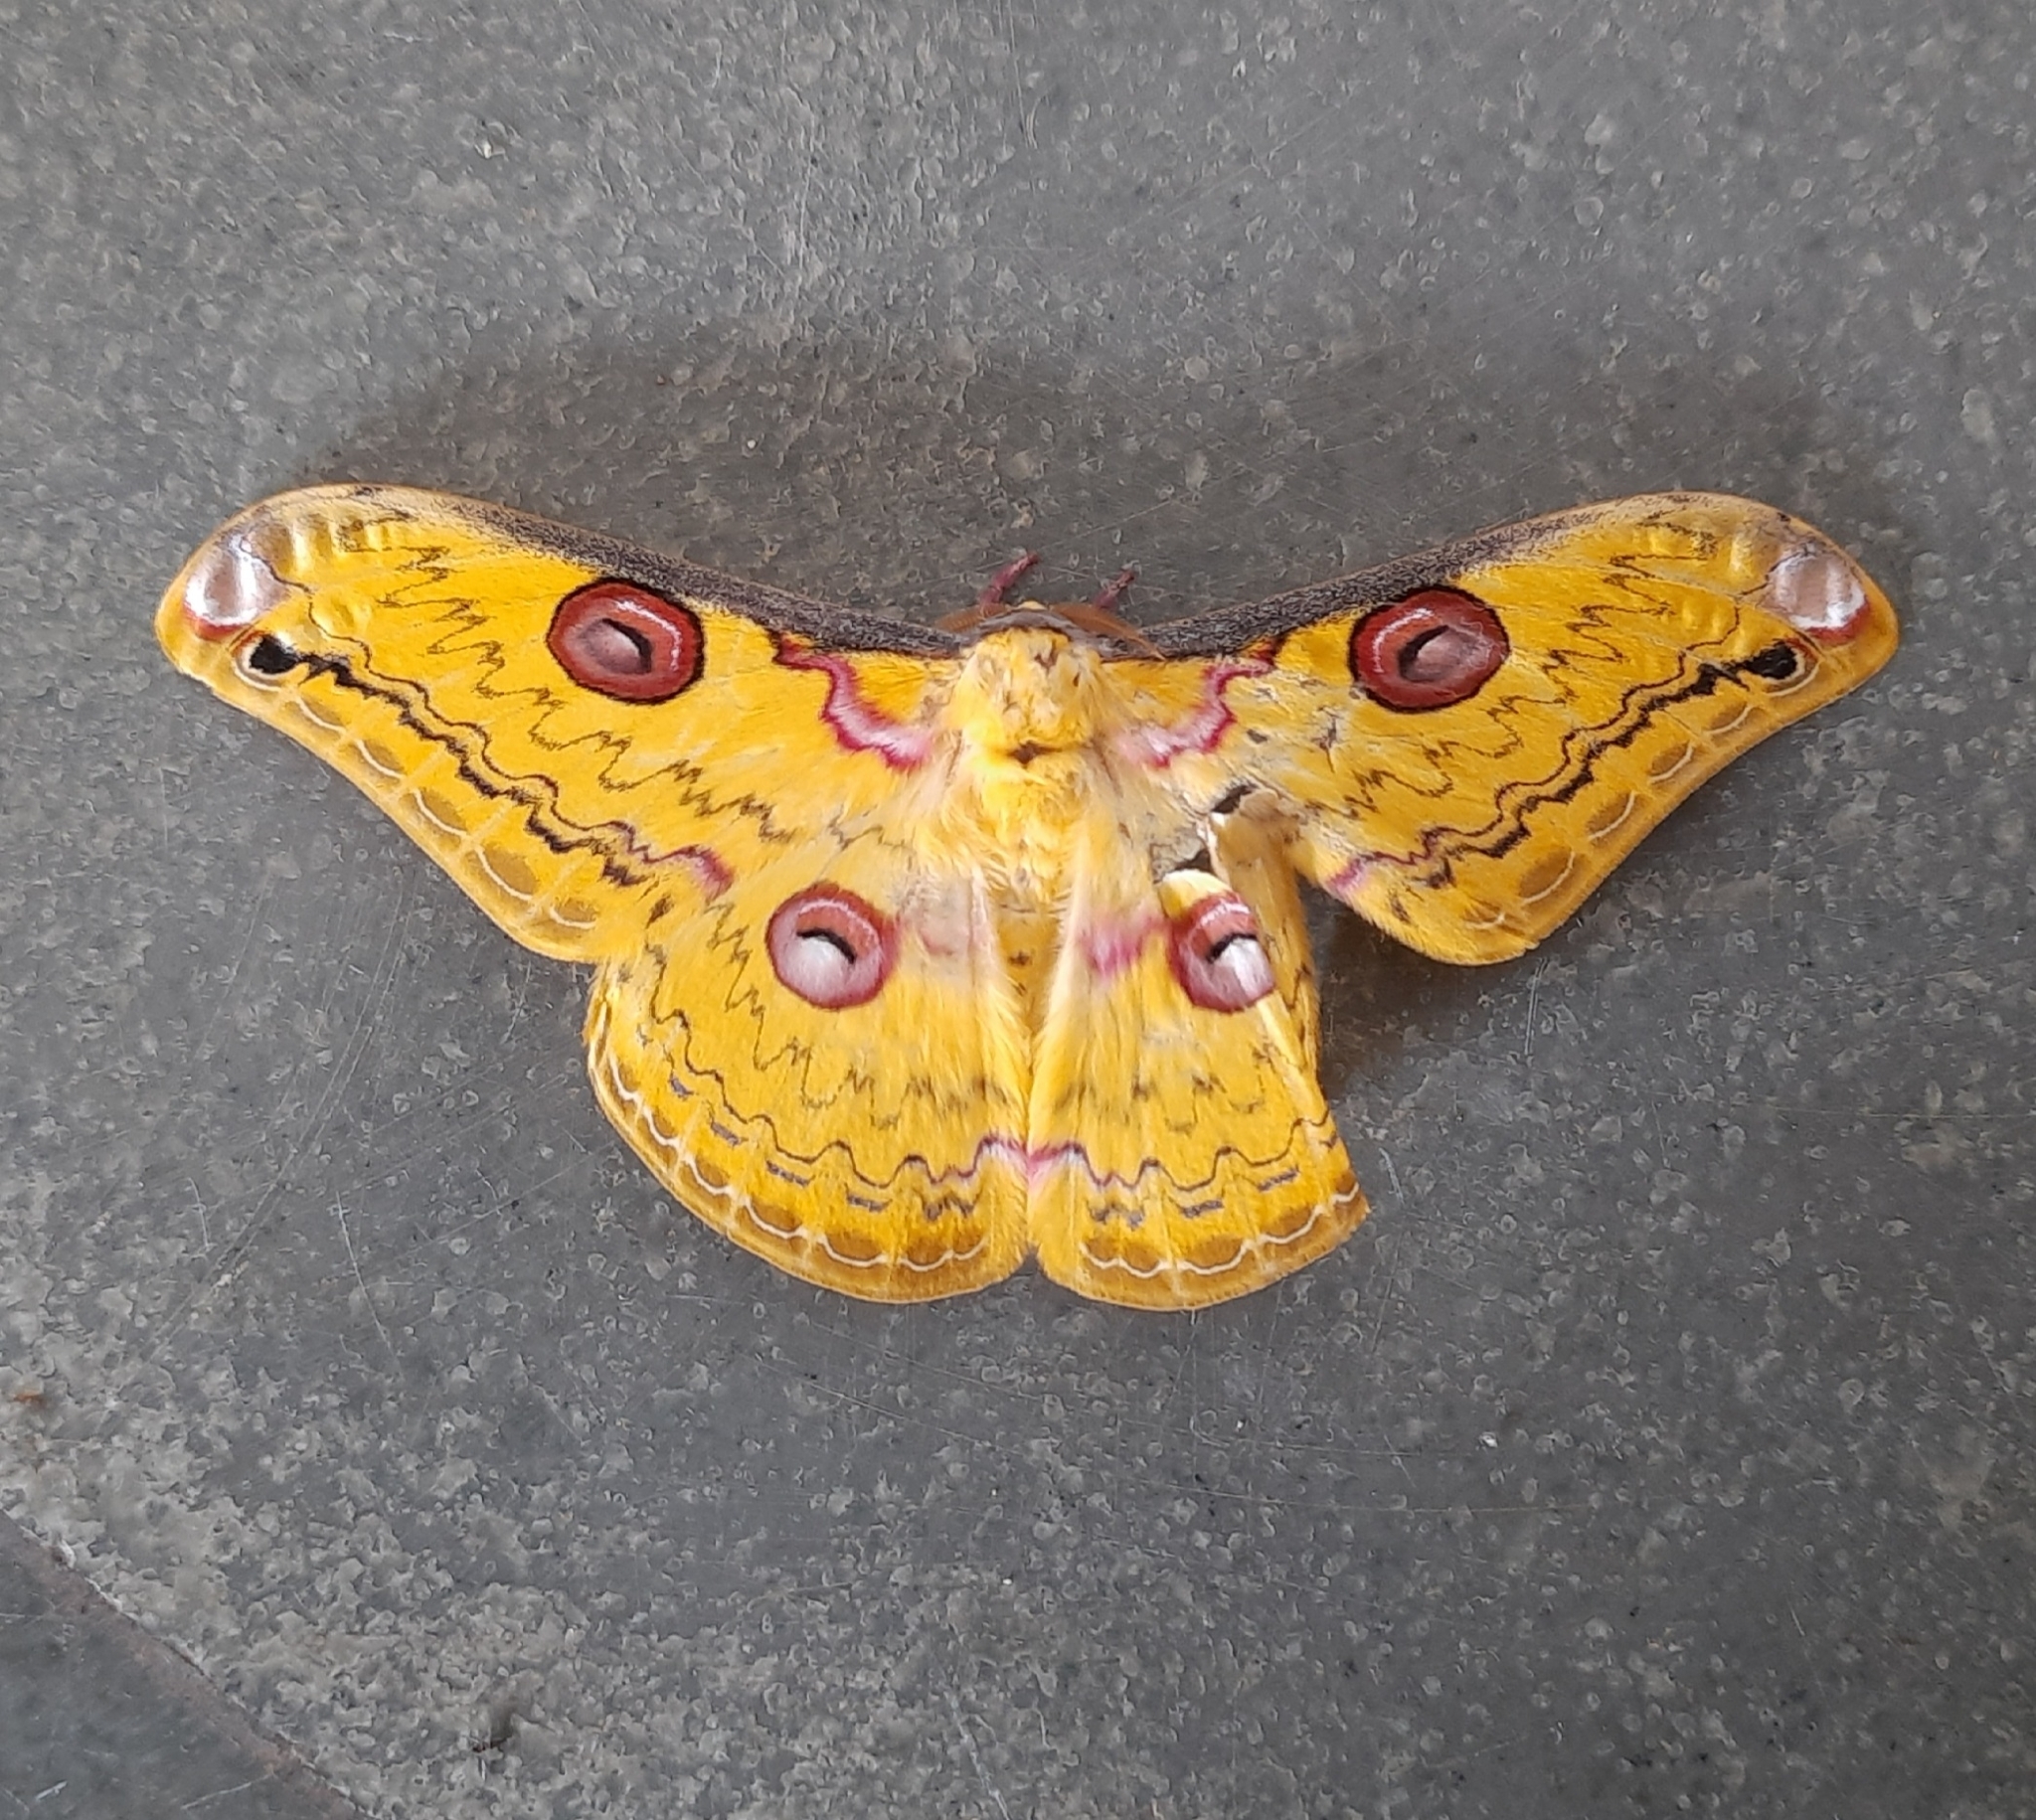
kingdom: Animalia
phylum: Arthropoda
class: Insecta
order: Lepidoptera
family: Saturniidae
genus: Loepa
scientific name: Loepa schintlmeisteri
